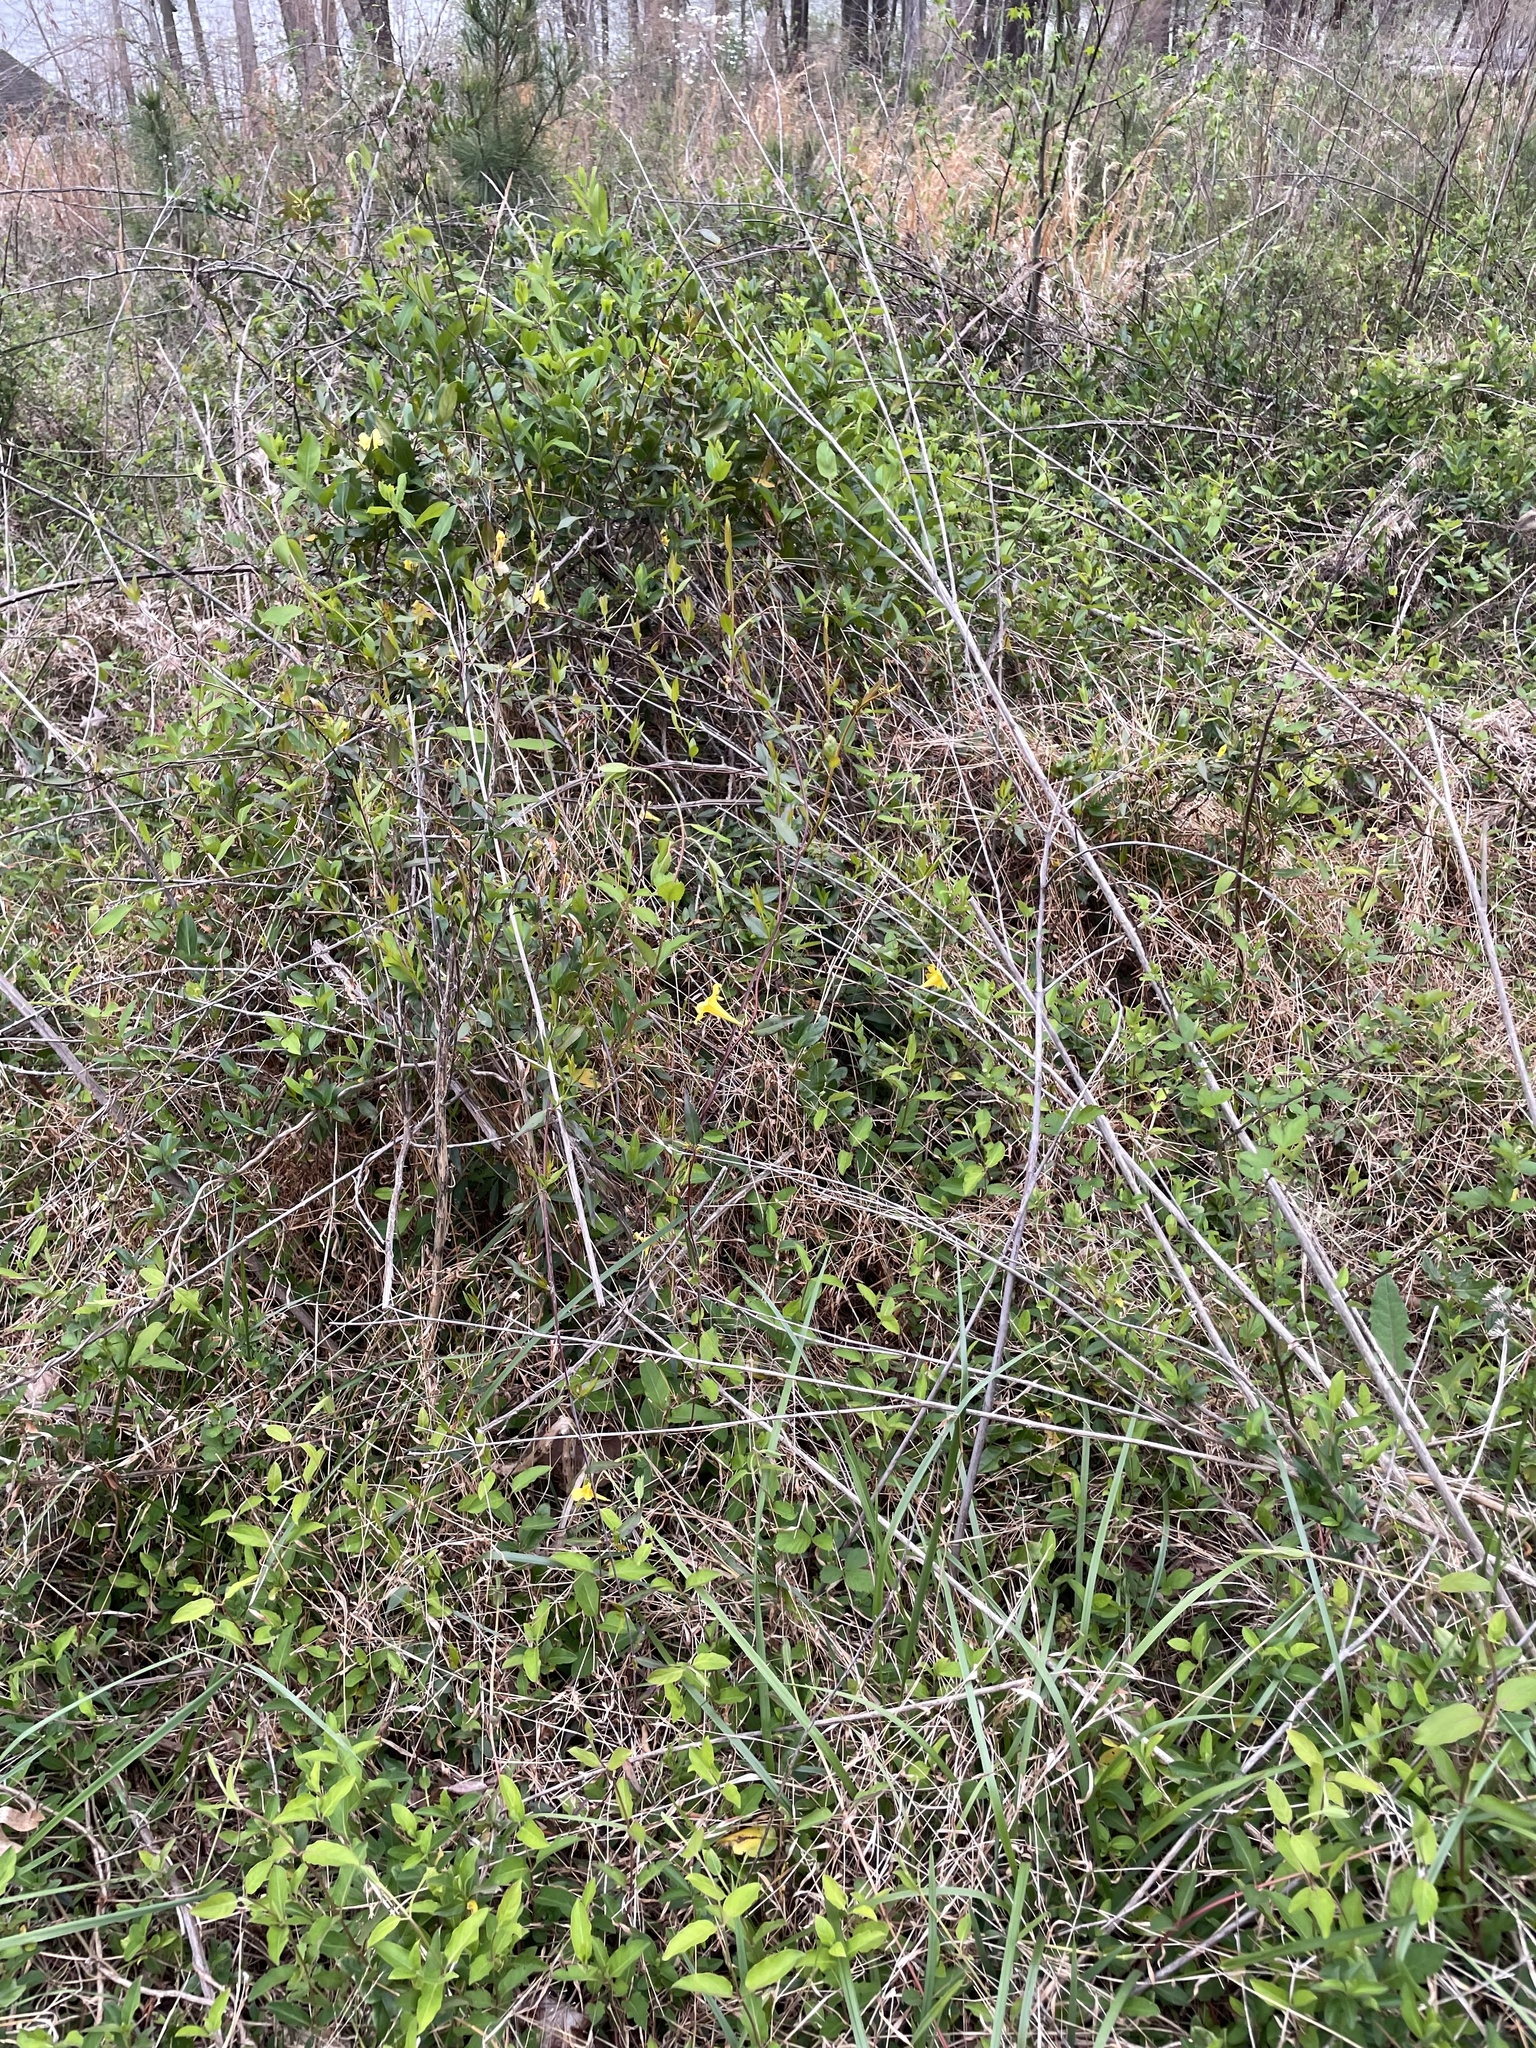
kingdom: Plantae
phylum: Tracheophyta
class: Magnoliopsida
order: Gentianales
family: Gelsemiaceae
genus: Gelsemium
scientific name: Gelsemium sempervirens
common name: Carolina-jasmine
